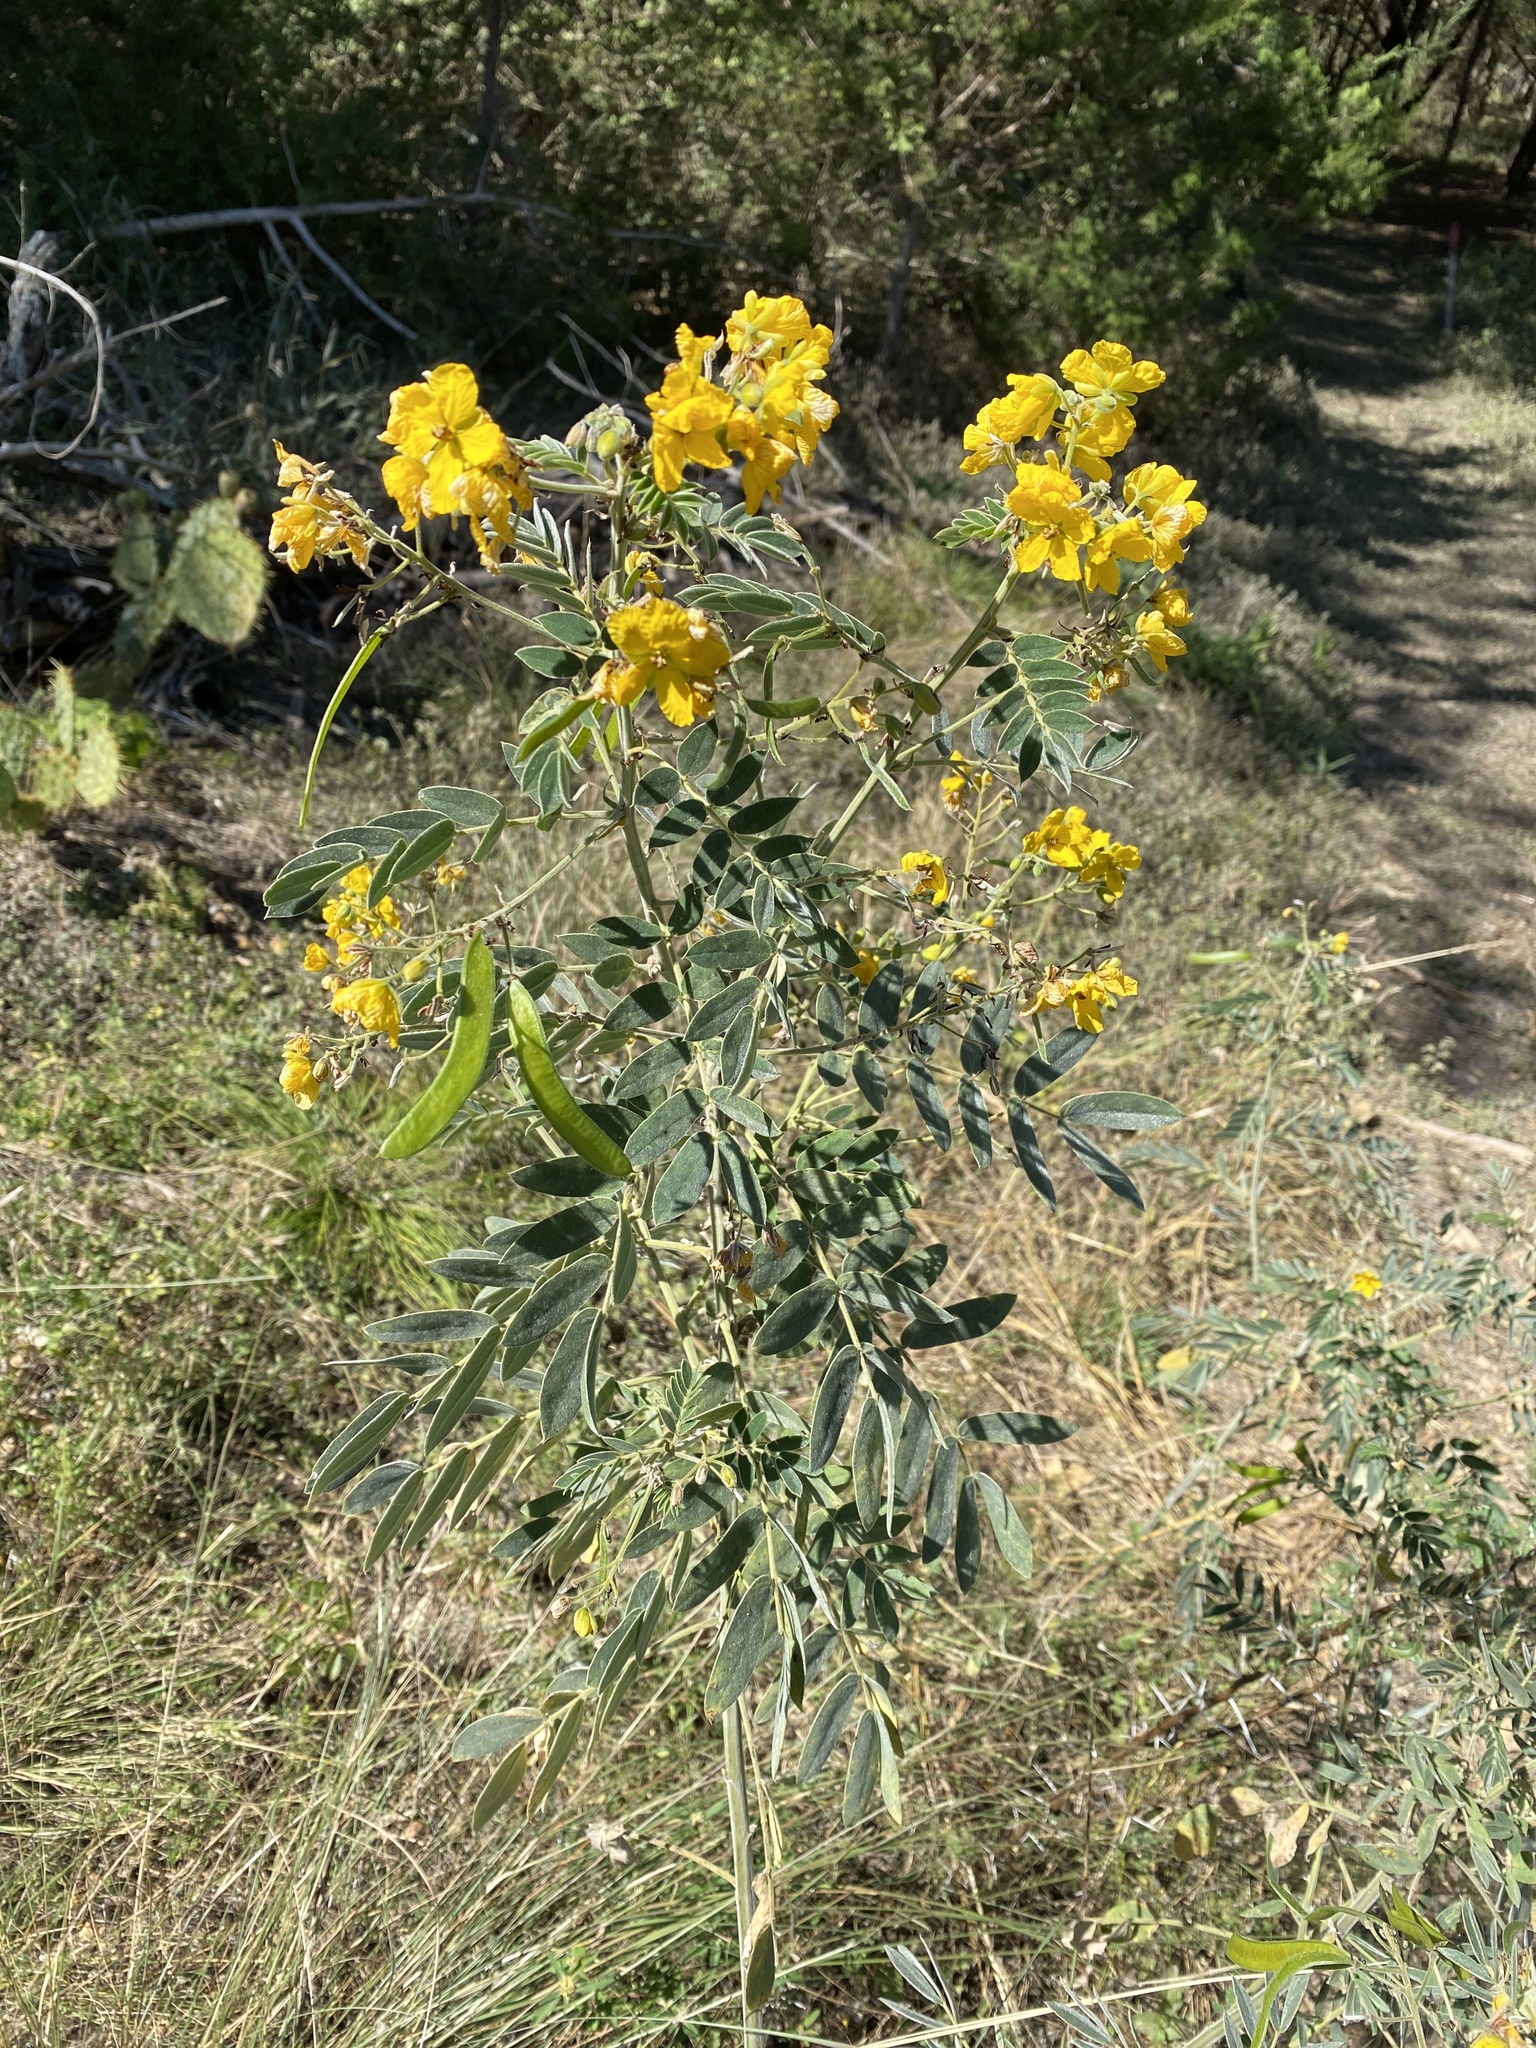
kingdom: Plantae
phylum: Tracheophyta
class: Magnoliopsida
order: Fabales
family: Fabaceae
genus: Senna
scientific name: Senna lindheimeriana
